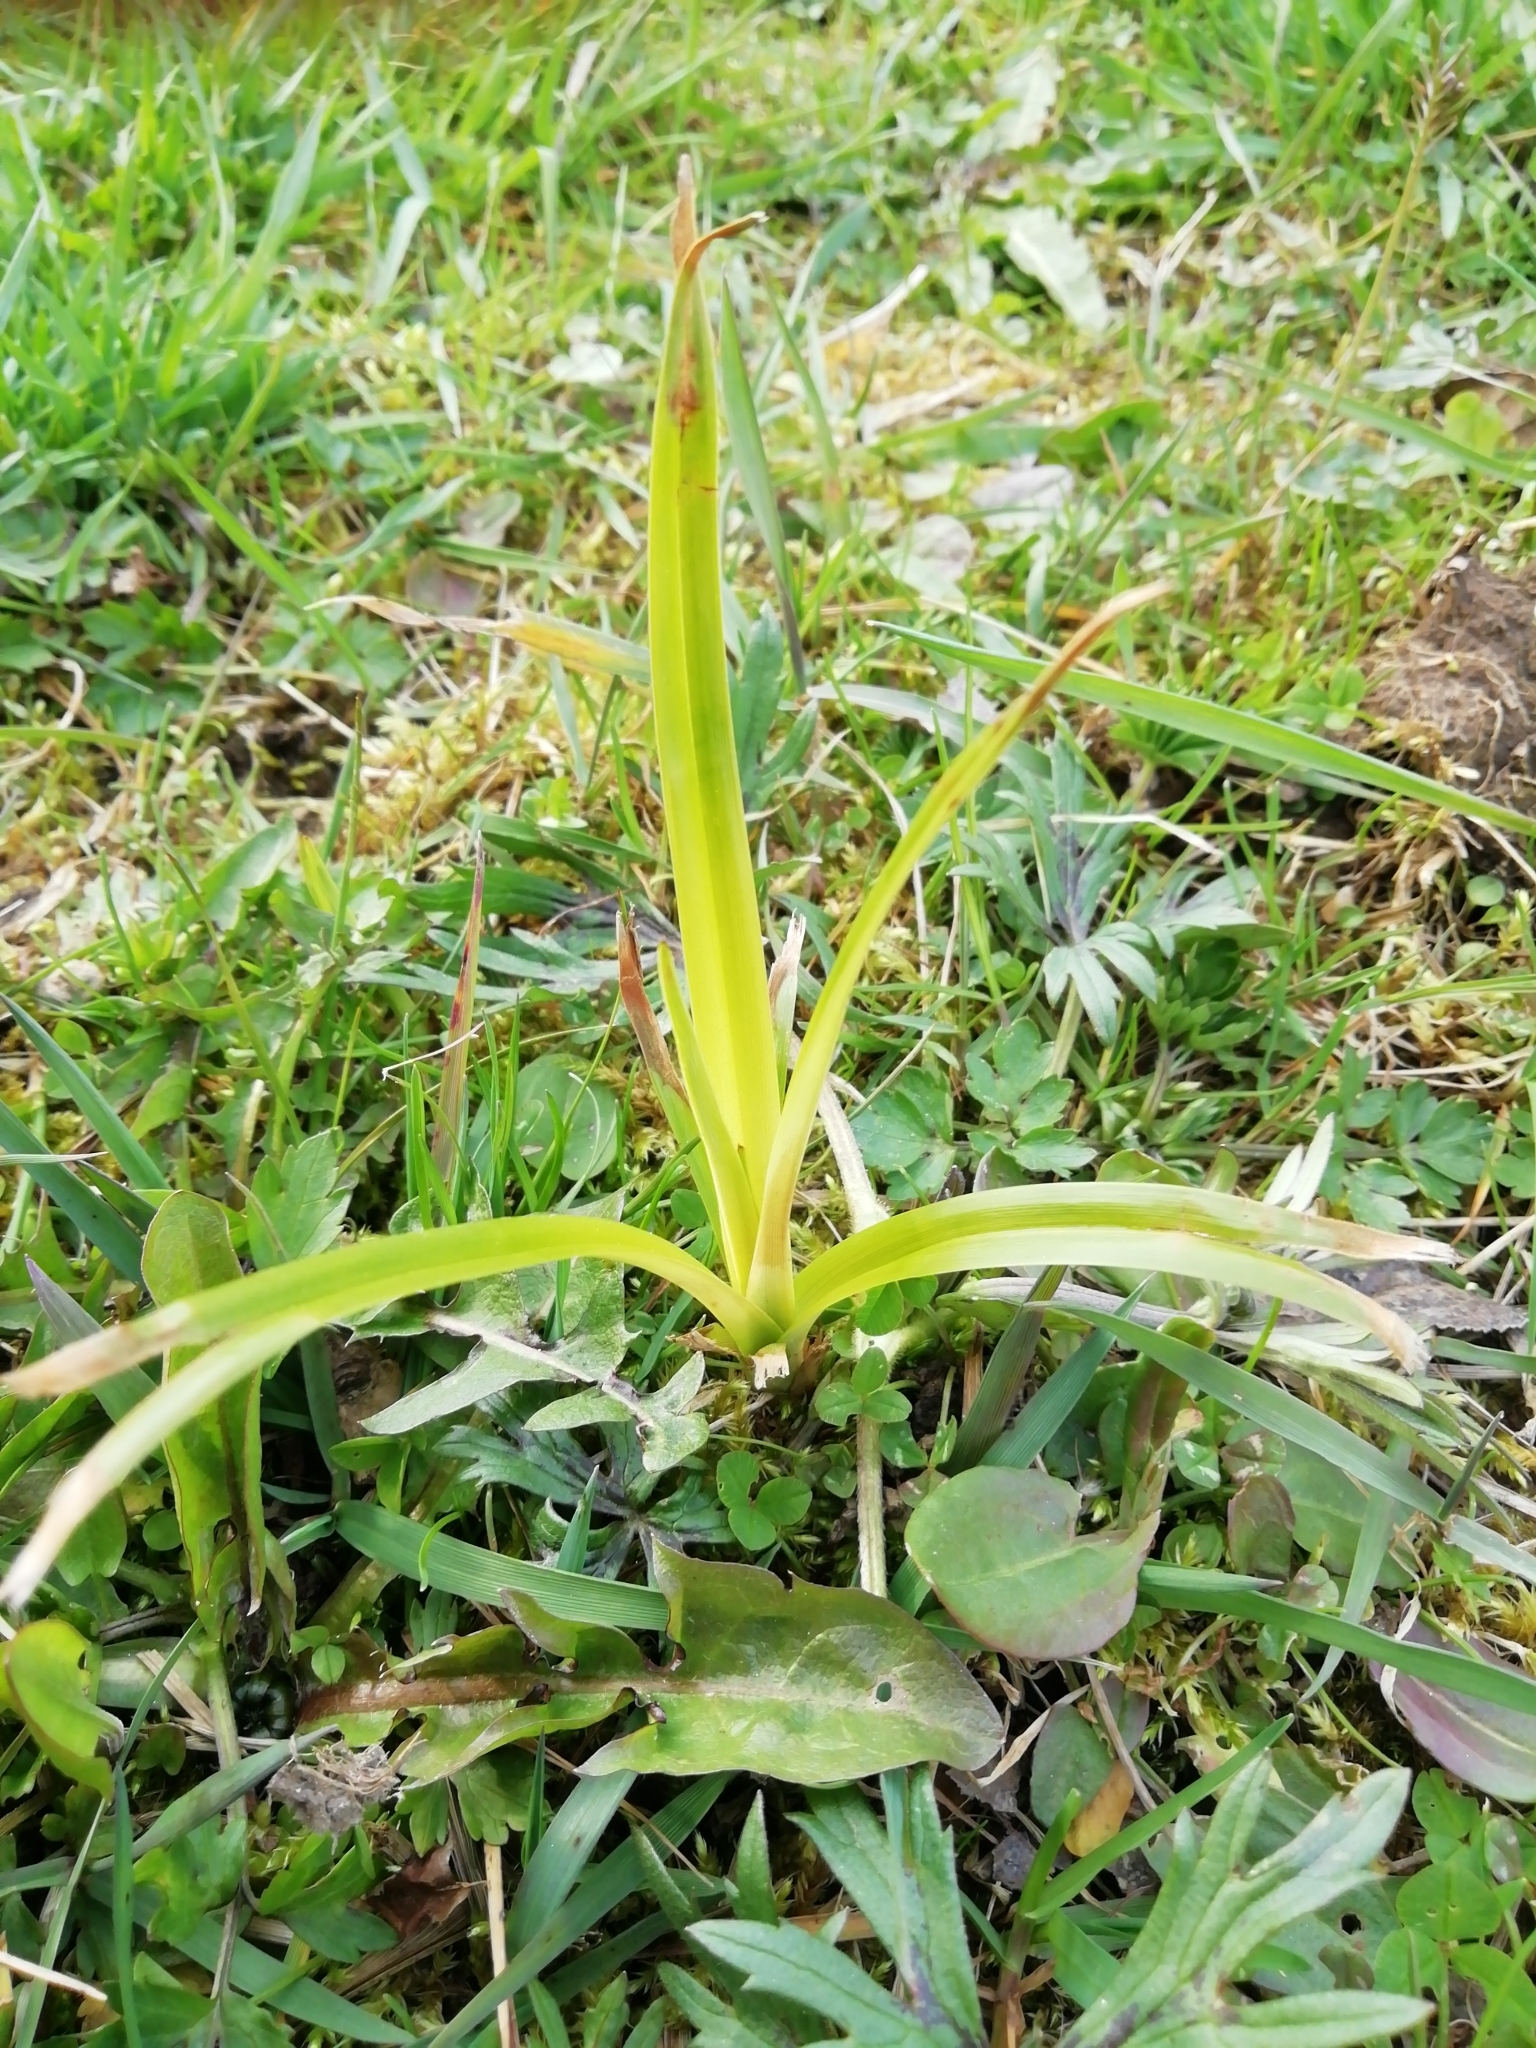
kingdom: Plantae
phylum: Tracheophyta
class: Liliopsida
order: Poales
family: Cyperaceae
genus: Scirpus
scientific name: Scirpus sylvaticus
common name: Wood club-rush
